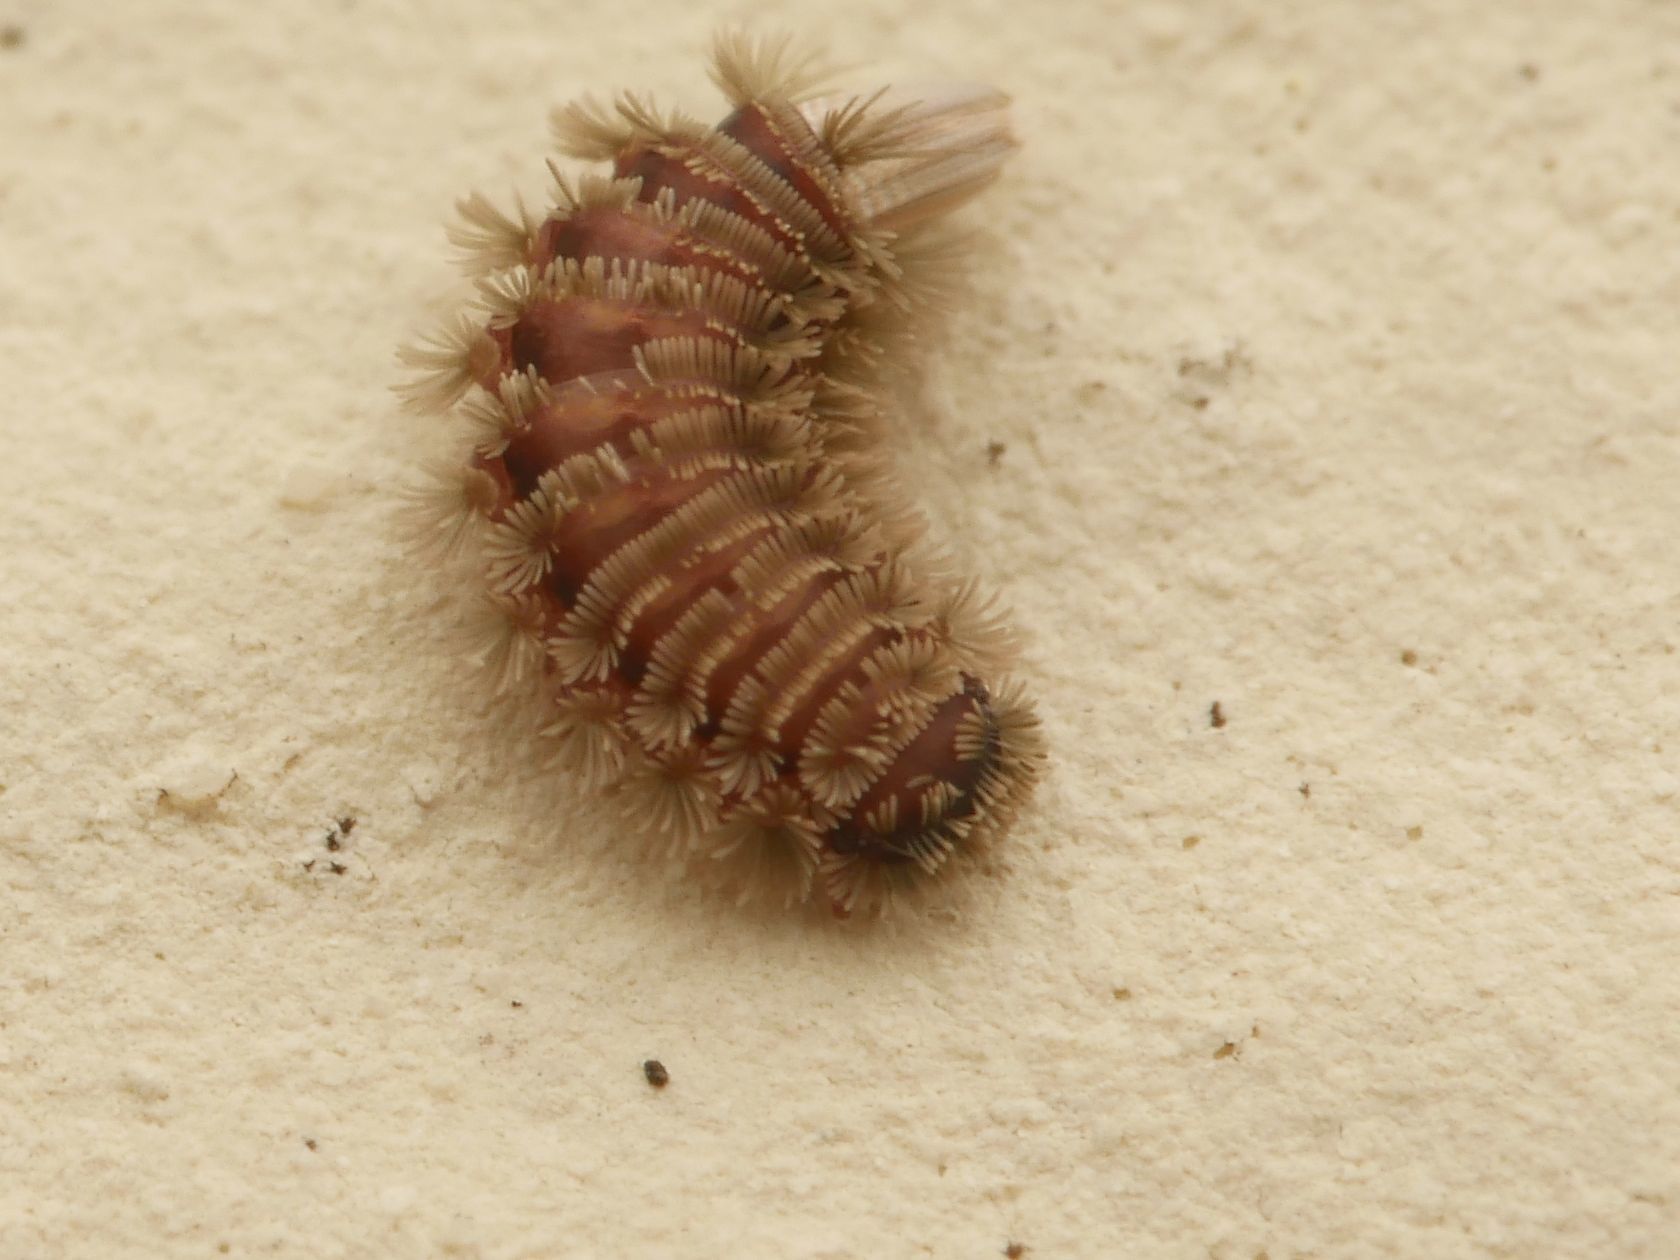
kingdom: Animalia
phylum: Arthropoda
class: Diplopoda
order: Polyxenida
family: Polyxenidae
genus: Polyxenus
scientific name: Polyxenus lagurus
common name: Bristly millipede
